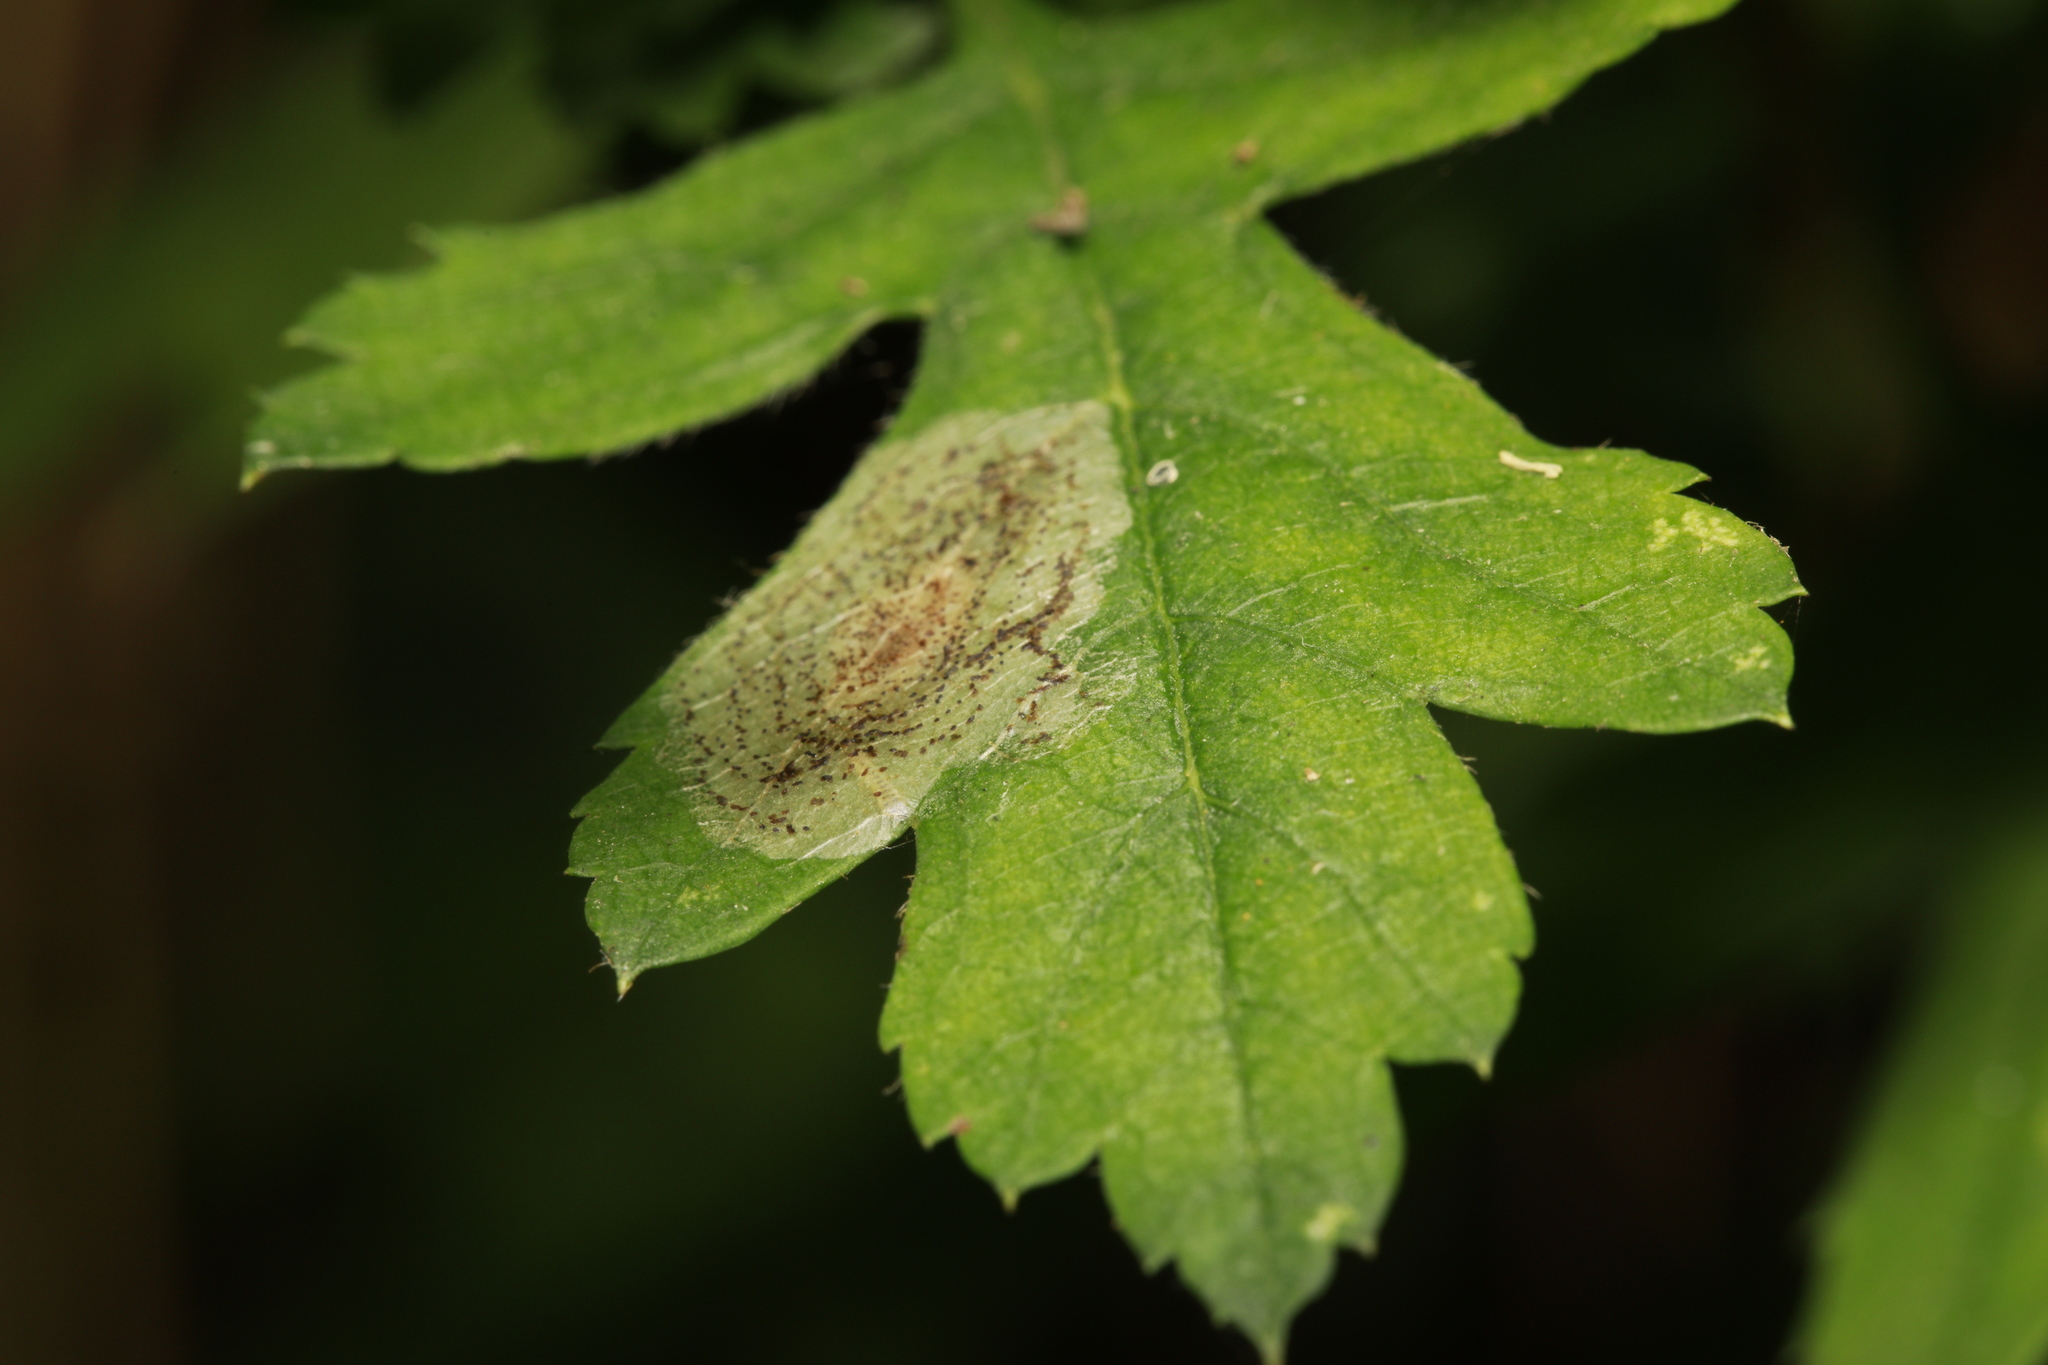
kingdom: Animalia
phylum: Arthropoda
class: Insecta
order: Lepidoptera
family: Gracillariidae
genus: Phyllonorycter
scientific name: Phyllonorycter corylifoliella
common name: Hawthorn midget
